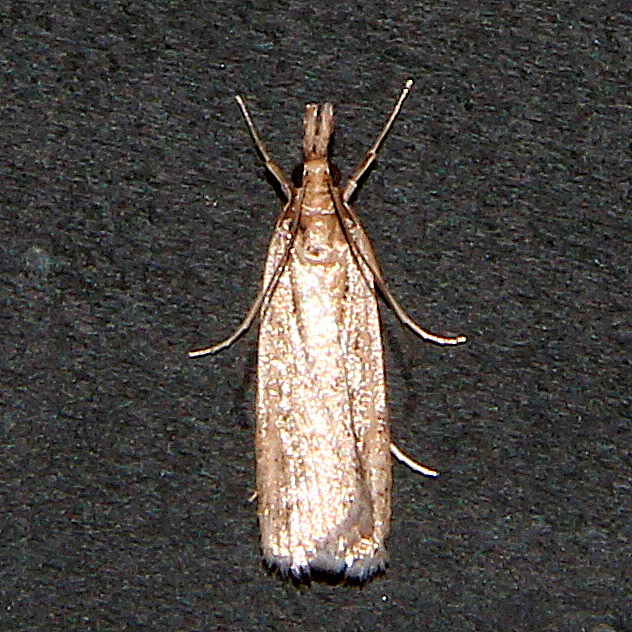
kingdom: Animalia
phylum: Arthropoda
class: Insecta
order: Lepidoptera
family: Crambidae
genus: Eudonia
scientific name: Eudonia sabulosella
